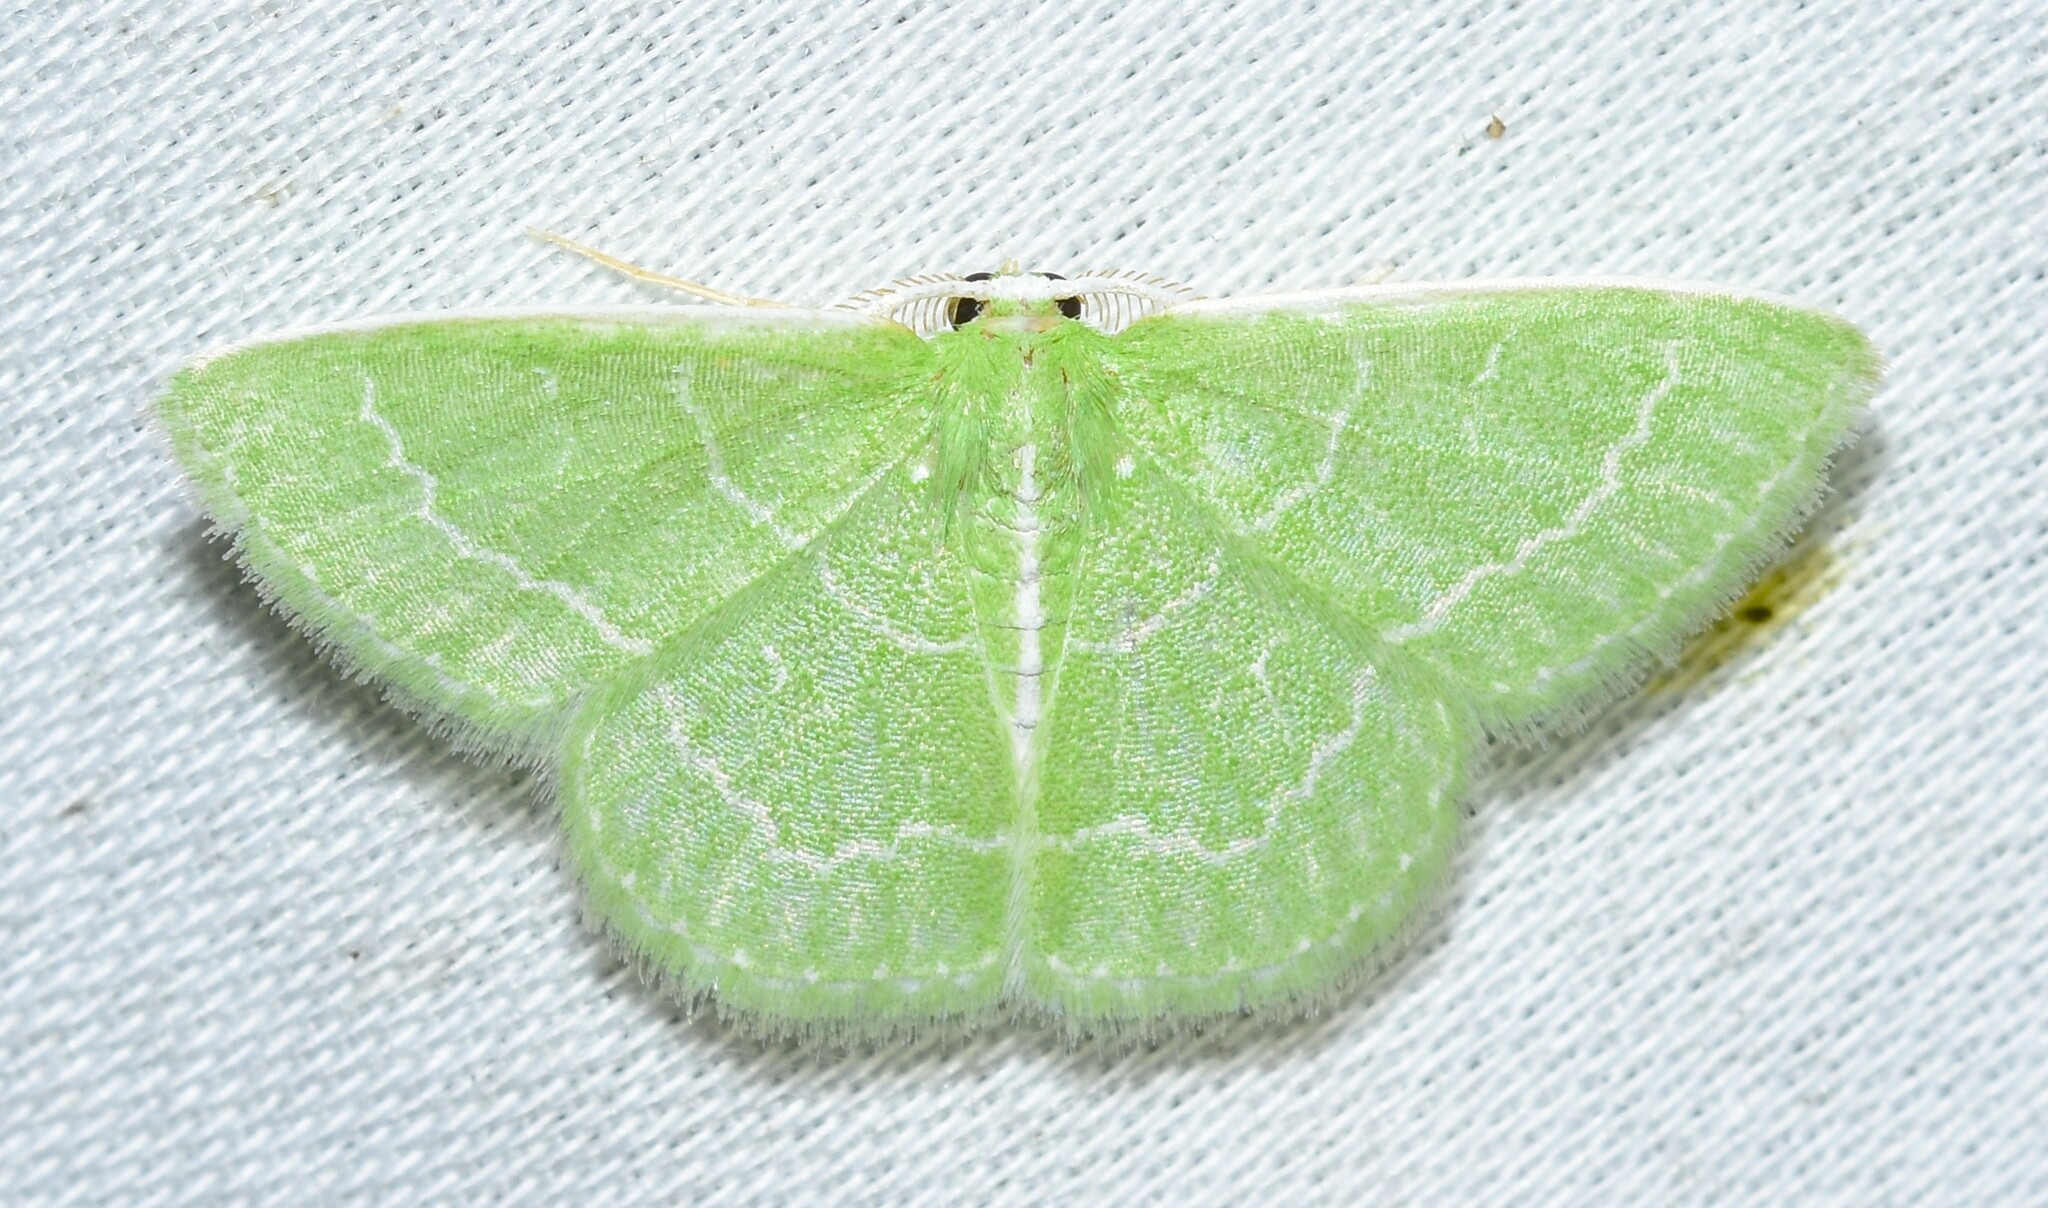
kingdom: Animalia
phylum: Arthropoda
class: Insecta
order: Lepidoptera
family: Geometridae
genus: Synchlora
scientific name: Synchlora aerata
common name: Wavy-lined emerald
